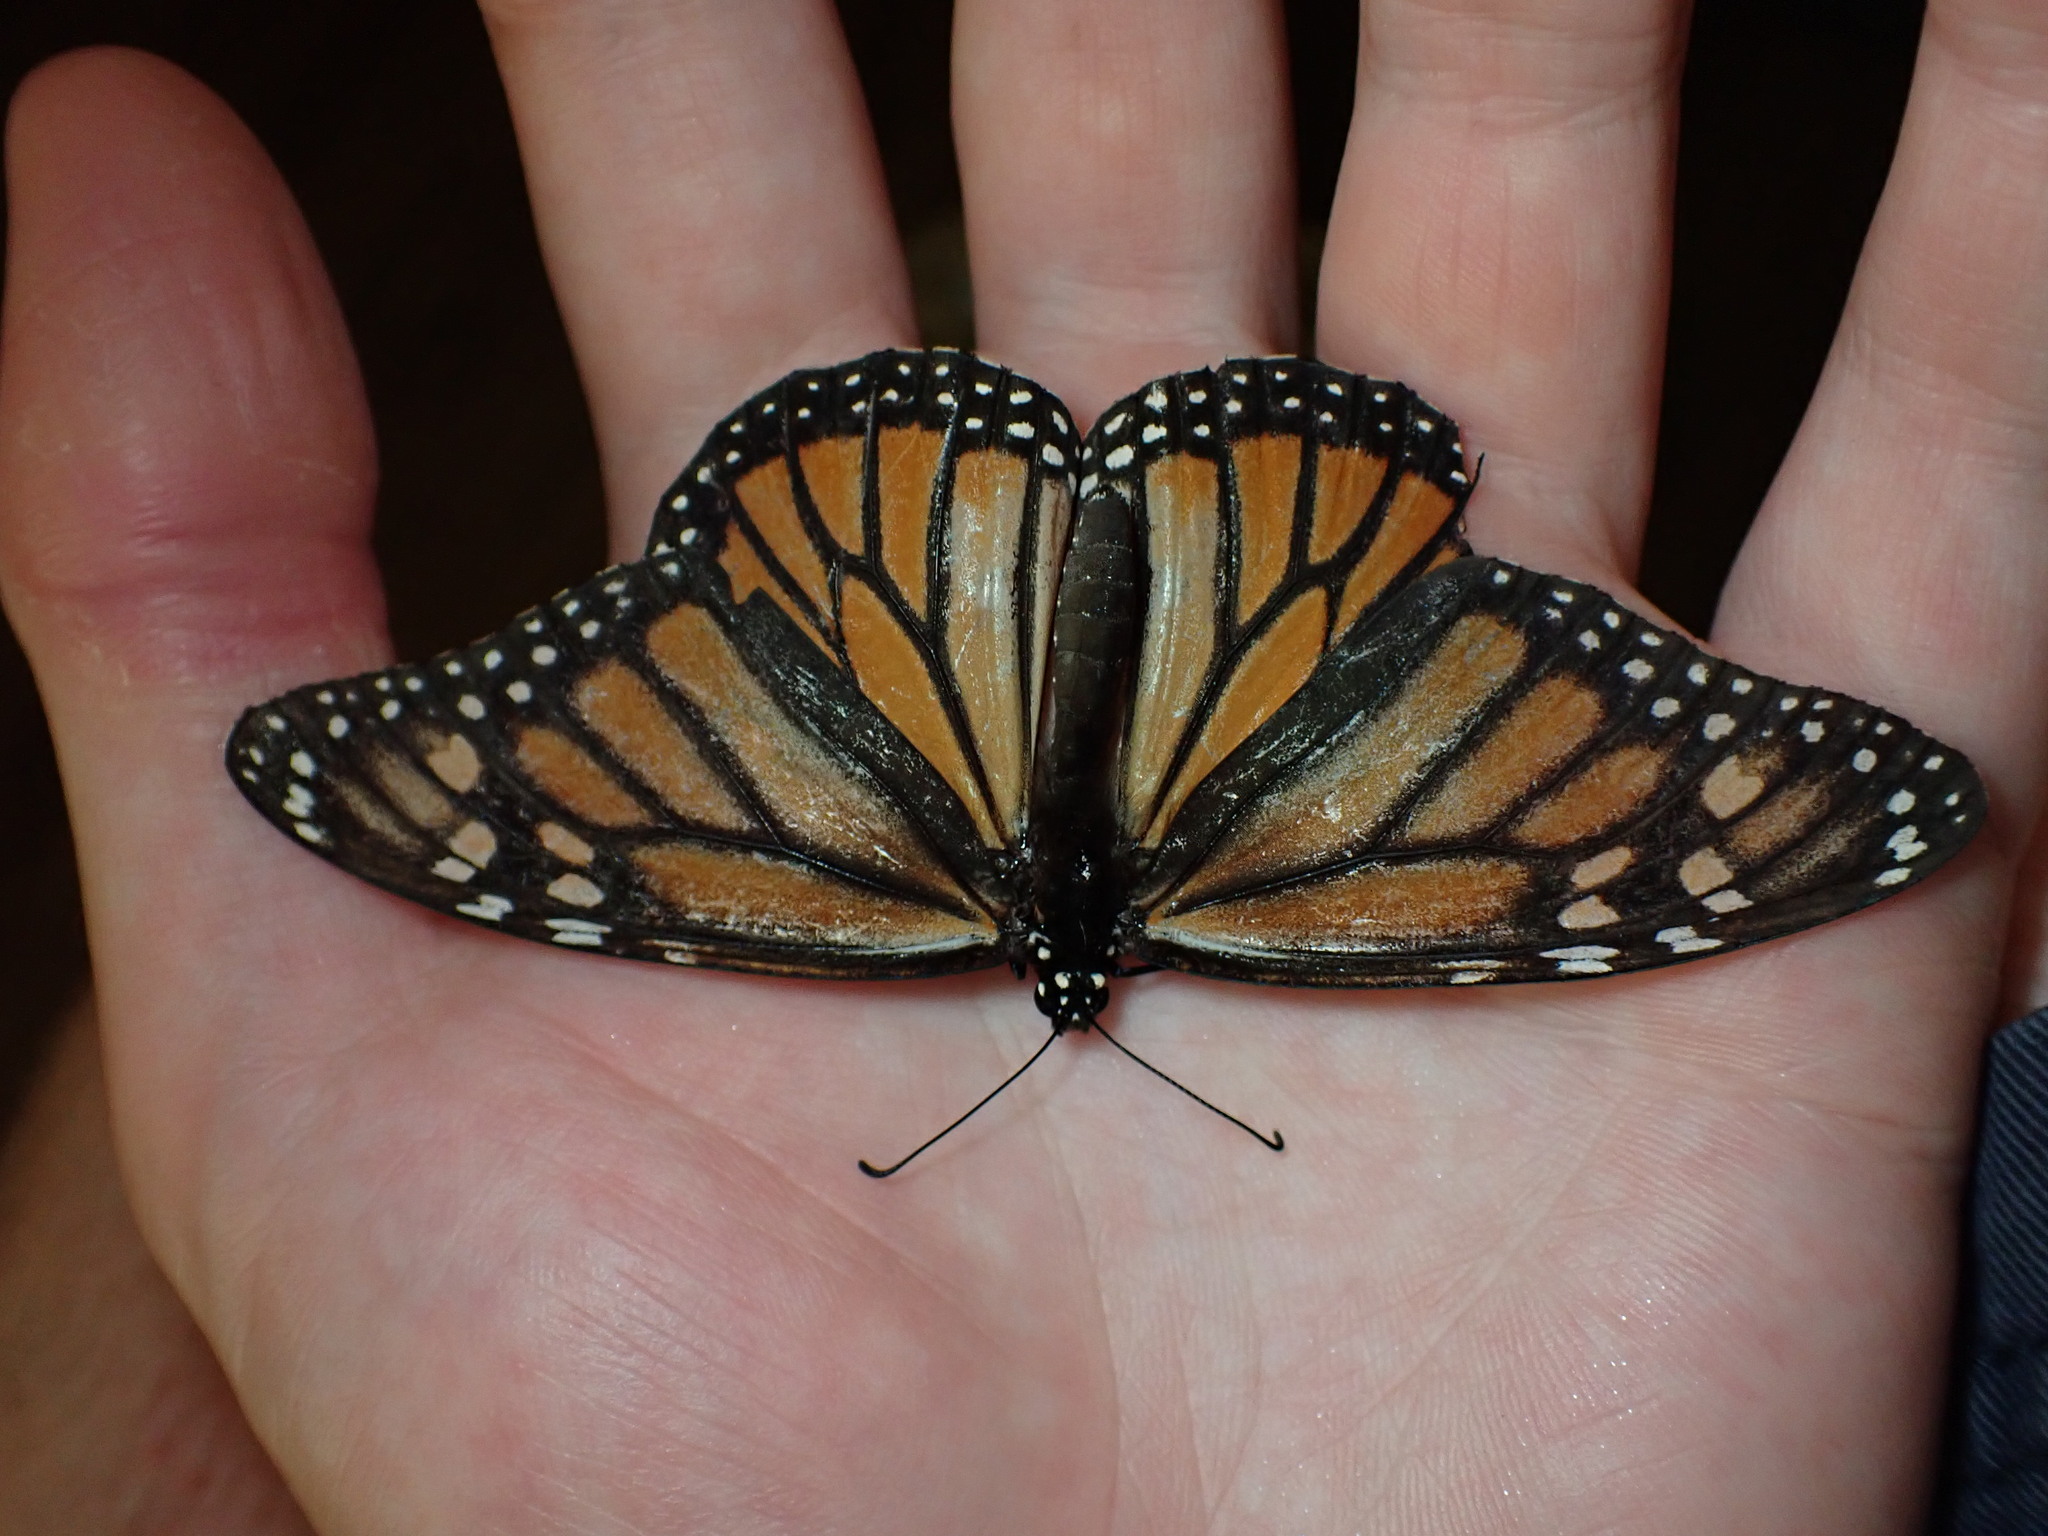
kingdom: Animalia
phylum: Arthropoda
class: Insecta
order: Lepidoptera
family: Nymphalidae
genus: Danaus
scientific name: Danaus plexippus
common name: Monarch
